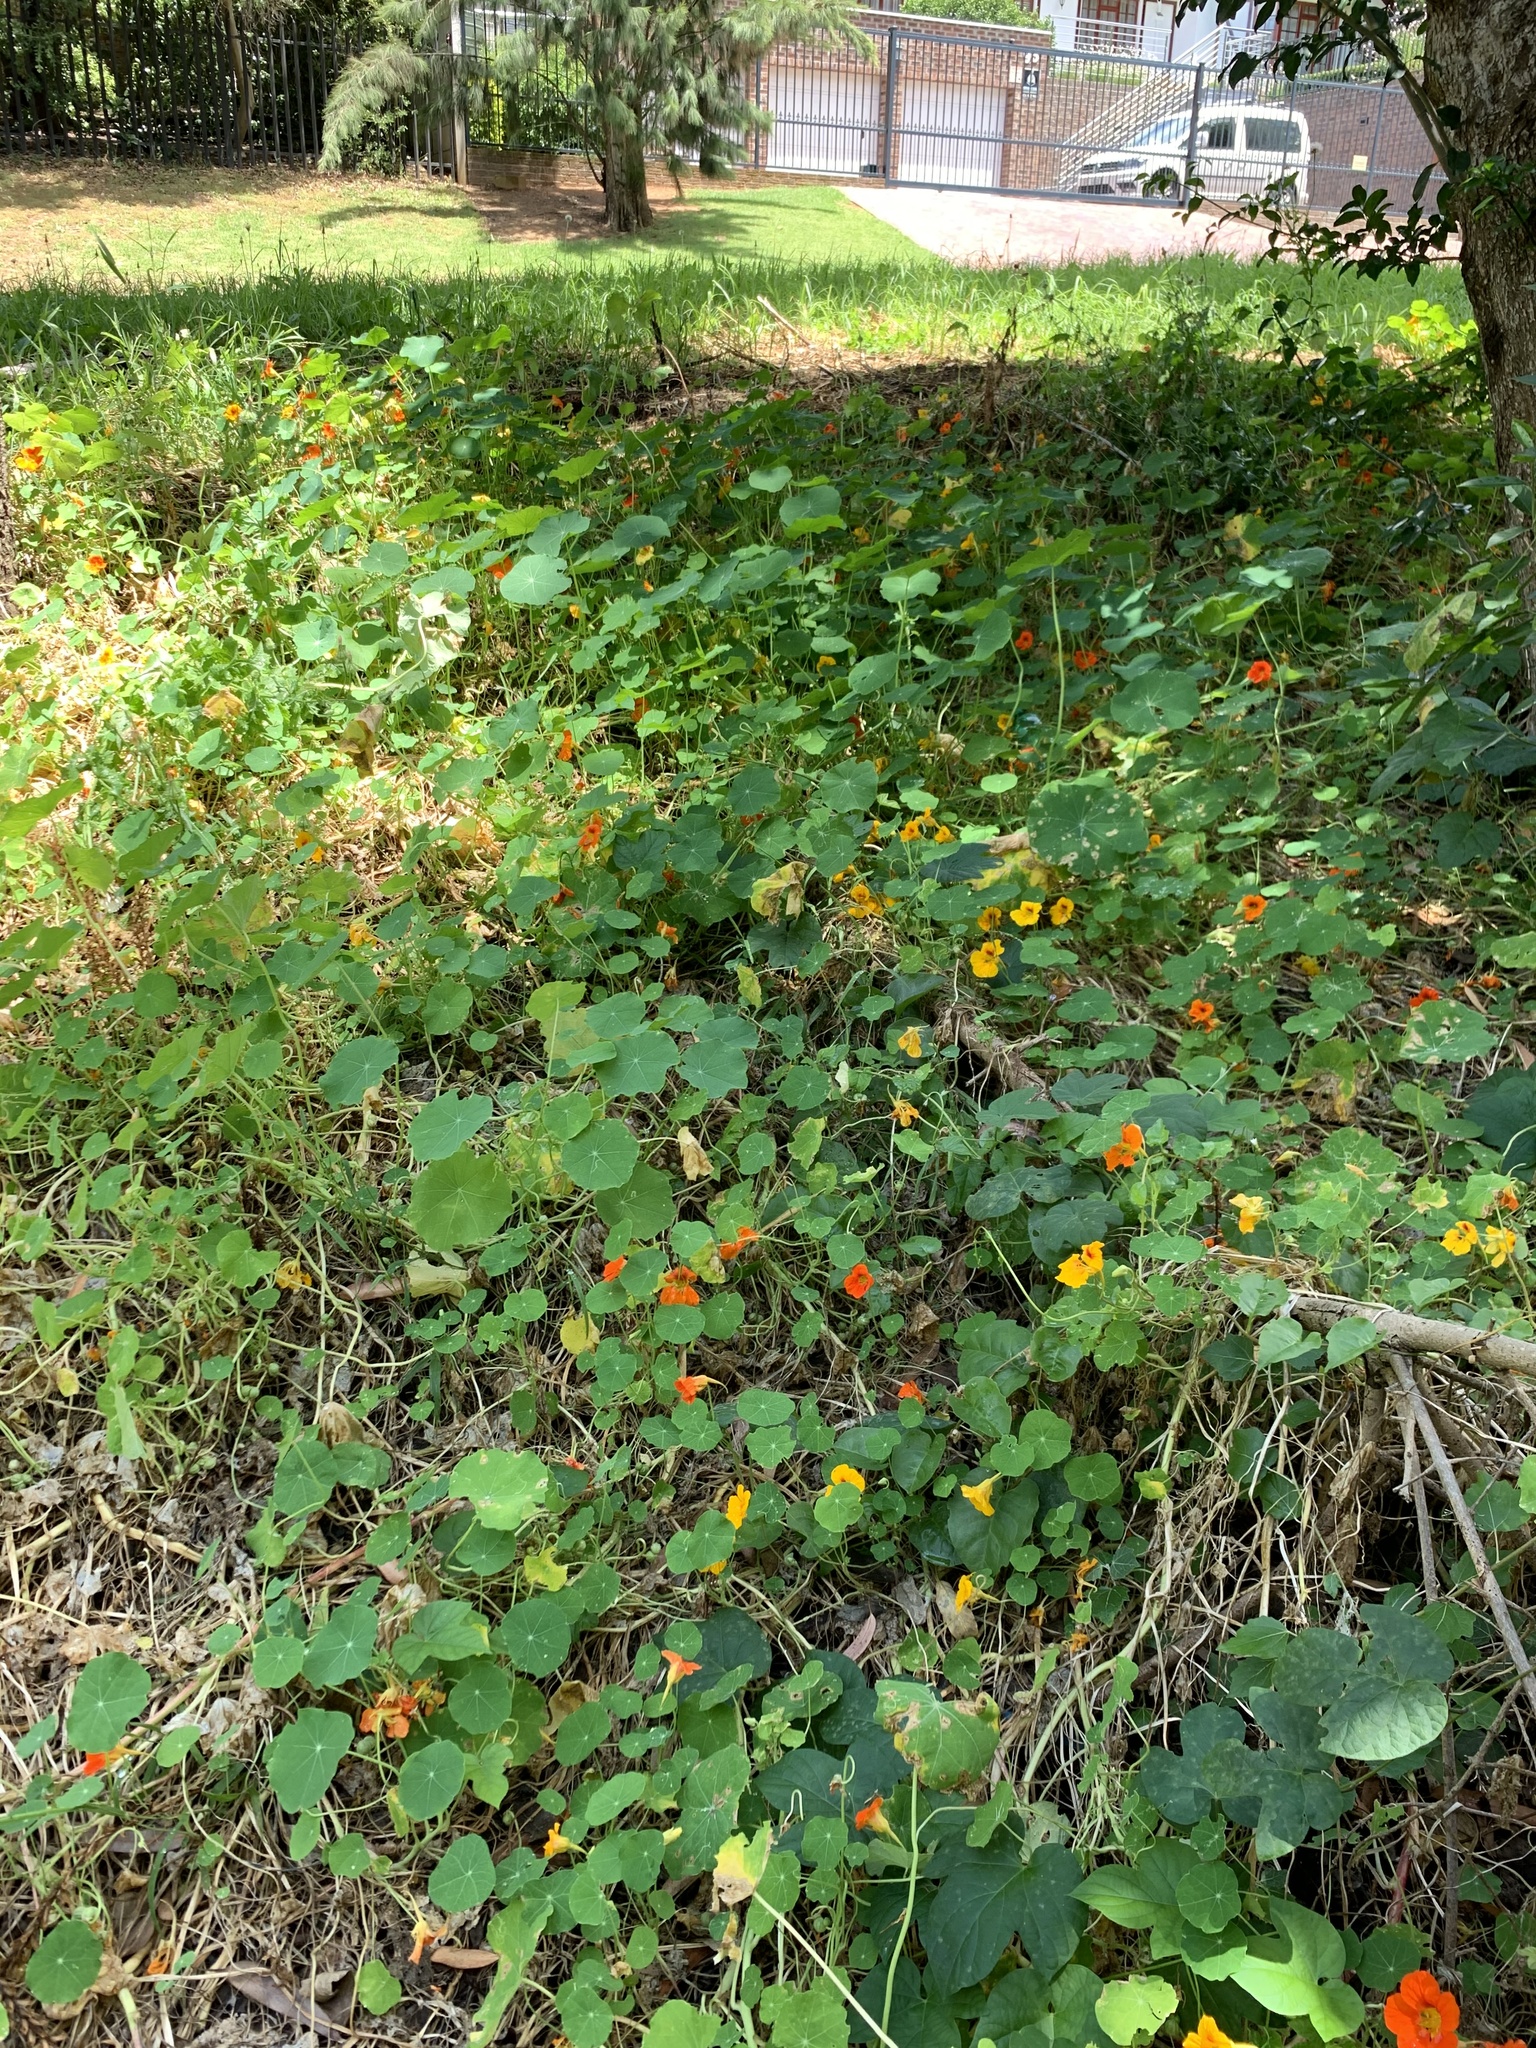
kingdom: Plantae
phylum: Tracheophyta
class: Magnoliopsida
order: Brassicales
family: Tropaeolaceae
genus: Tropaeolum
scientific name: Tropaeolum majus
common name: Nasturtium
